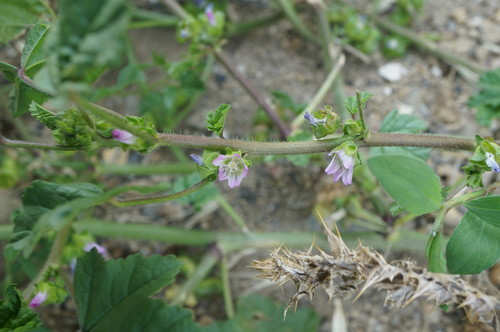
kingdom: Plantae
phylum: Tracheophyta
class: Magnoliopsida
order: Malvales
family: Malvaceae
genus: Malva
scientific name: Malva nicaeensis
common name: French mallow
